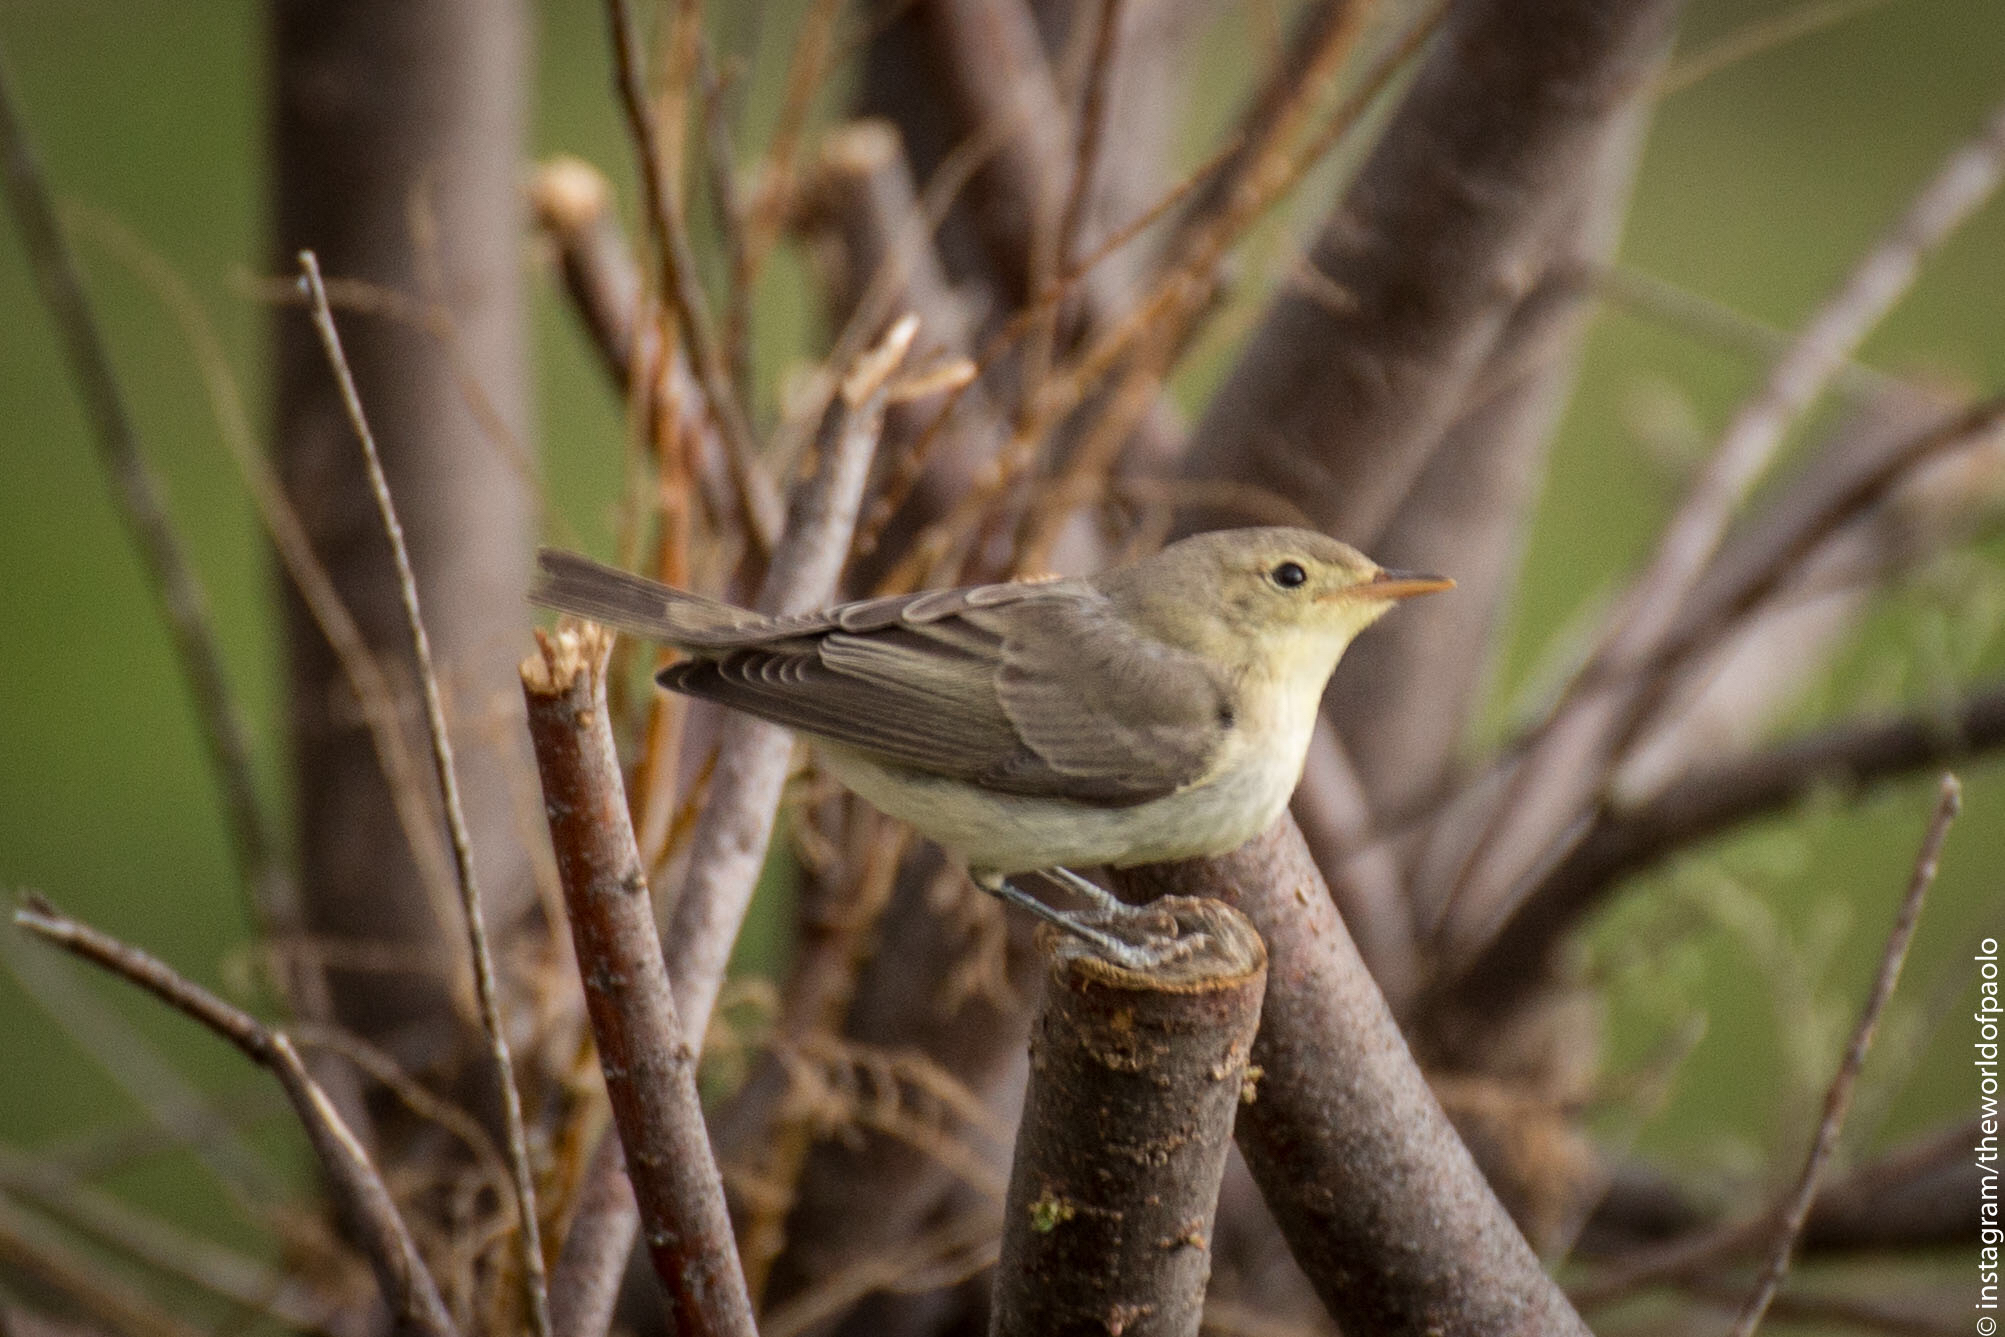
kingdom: Animalia
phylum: Chordata
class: Aves
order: Passeriformes
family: Acrocephalidae
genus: Hippolais
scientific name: Hippolais icterina
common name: Icterine warbler
